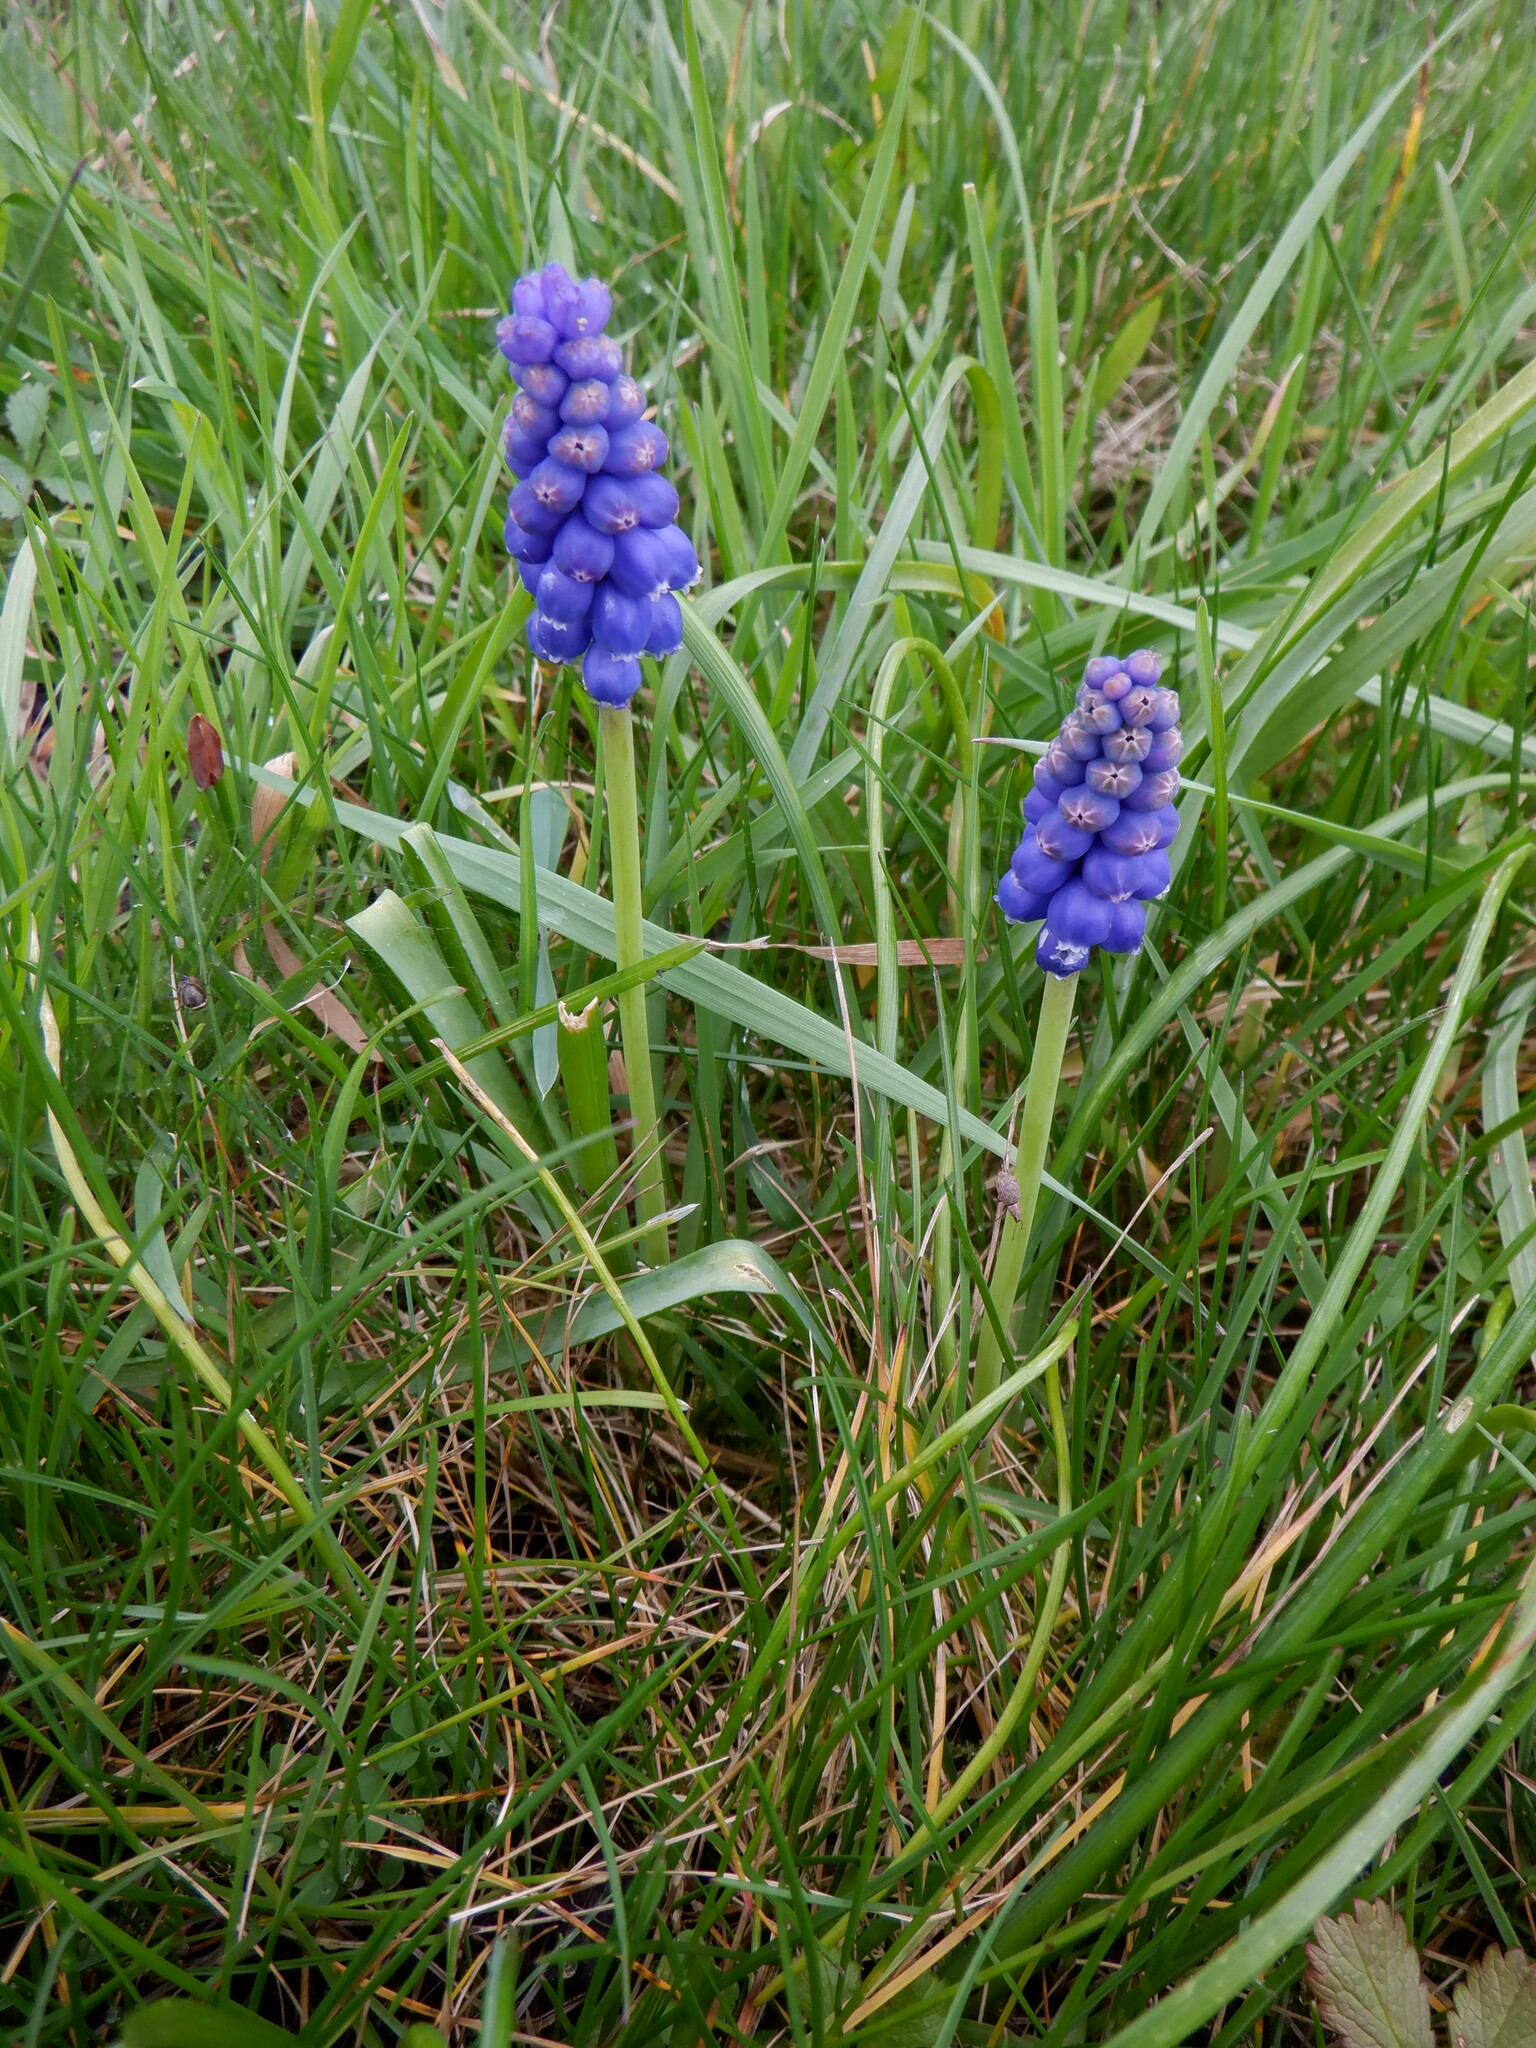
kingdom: Plantae
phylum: Tracheophyta
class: Liliopsida
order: Asparagales
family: Asparagaceae
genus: Muscari
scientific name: Muscari armeniacum
